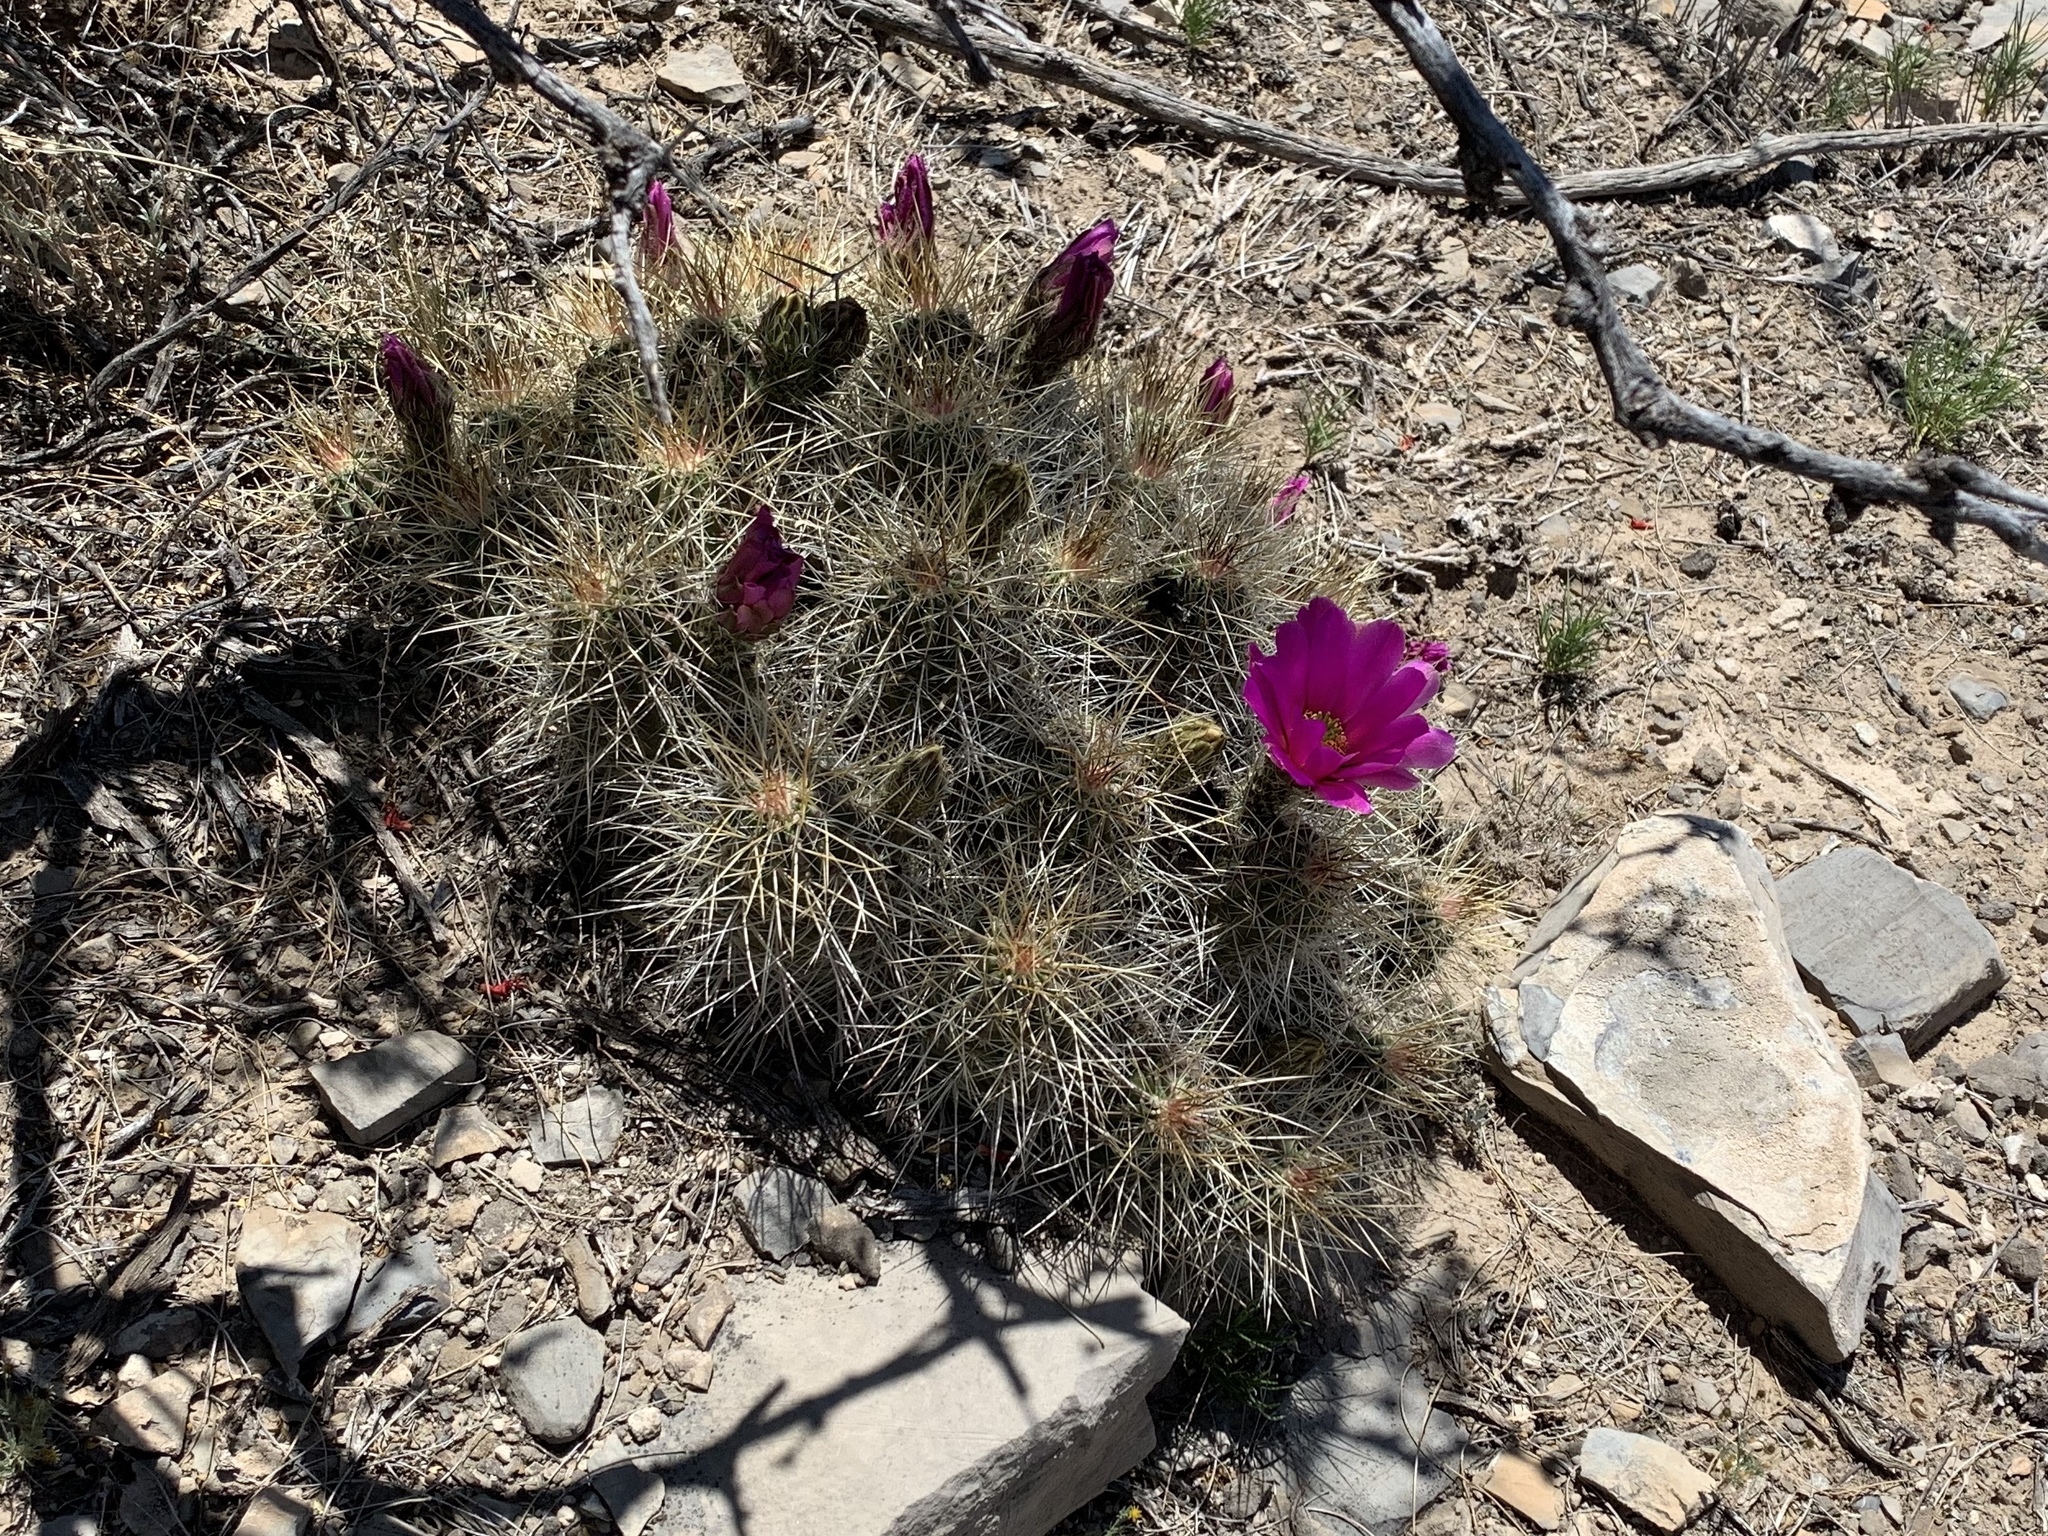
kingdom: Plantae
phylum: Tracheophyta
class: Magnoliopsida
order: Caryophyllales
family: Cactaceae
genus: Echinocereus
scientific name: Echinocereus stramineus
